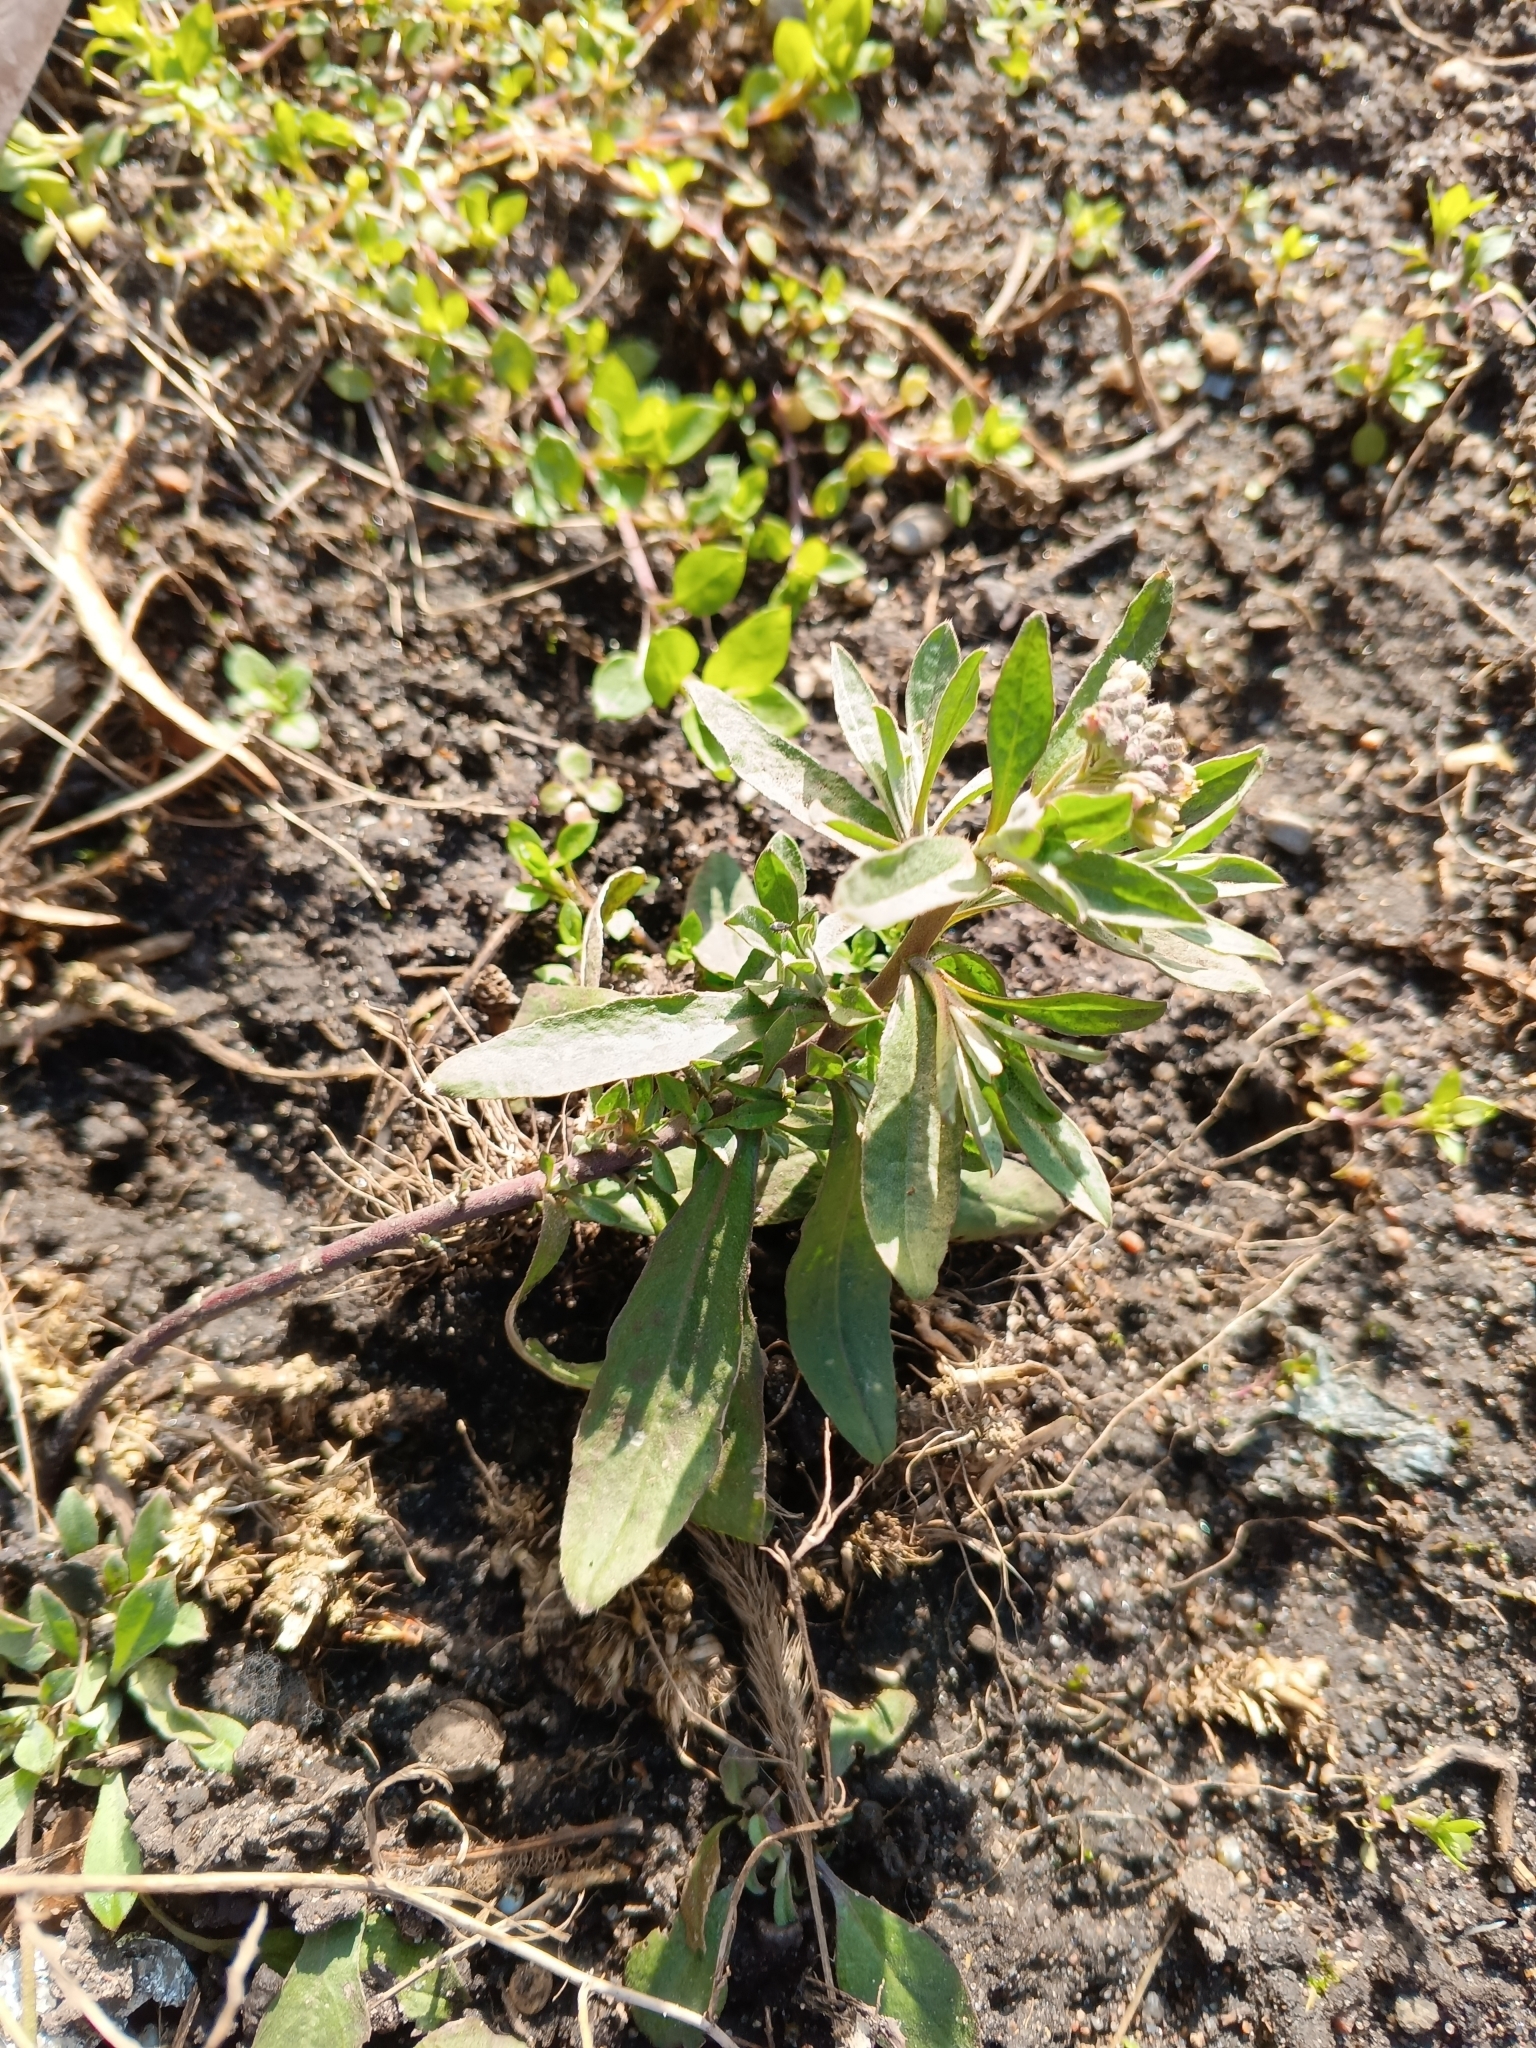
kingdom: Plantae
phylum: Tracheophyta
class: Magnoliopsida
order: Brassicales
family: Brassicaceae
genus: Berteroa
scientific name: Berteroa incana
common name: Hoary alison
